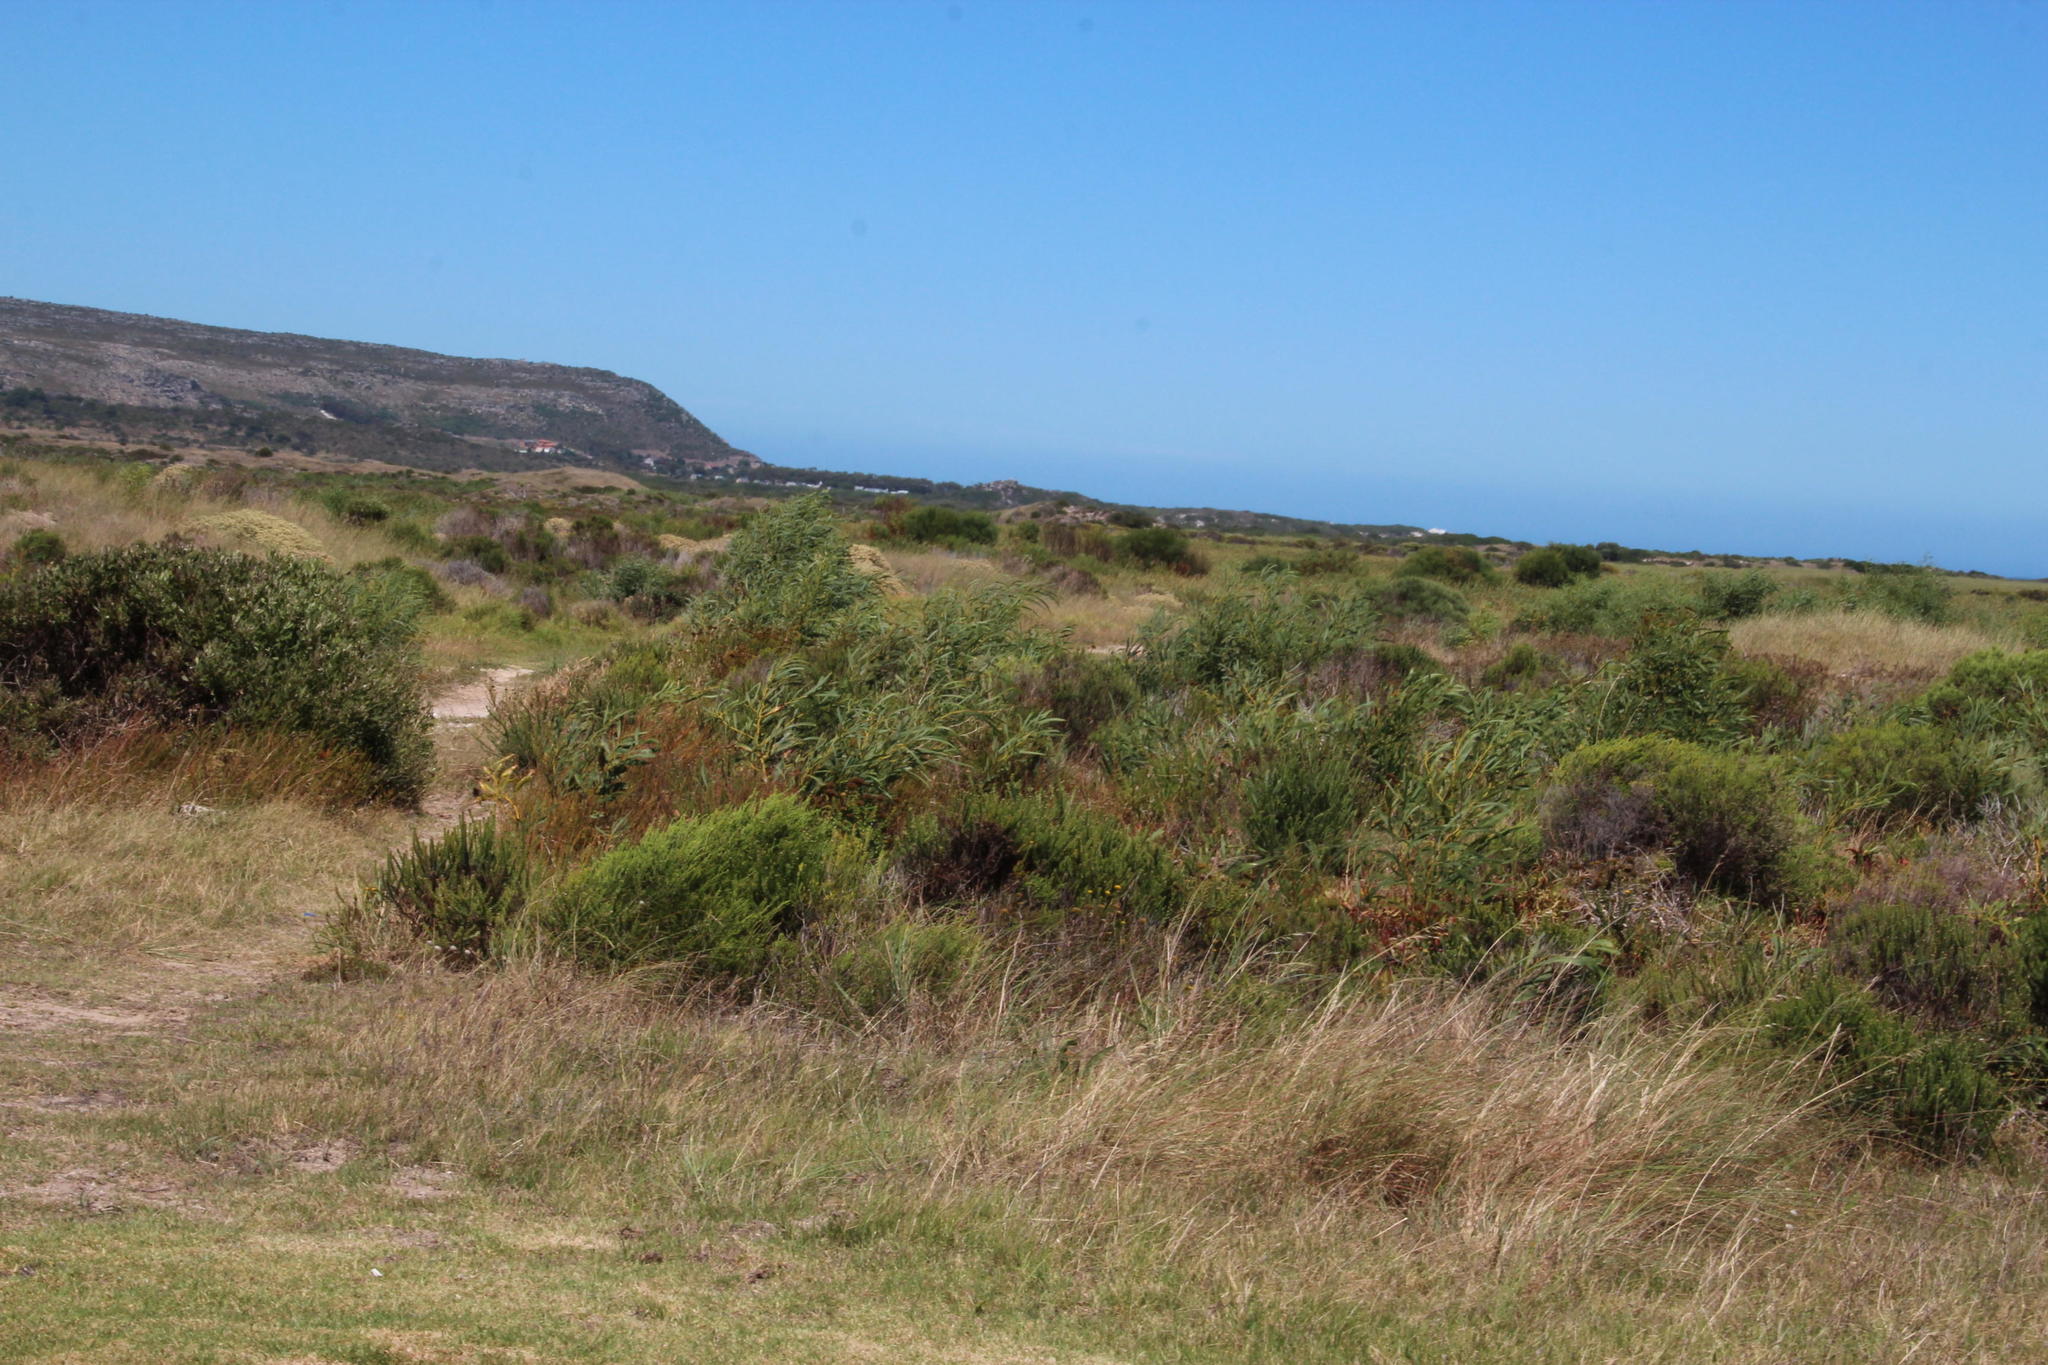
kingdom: Plantae
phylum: Tracheophyta
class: Magnoliopsida
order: Fabales
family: Fabaceae
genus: Acacia
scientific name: Acacia saligna
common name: Orange wattle
